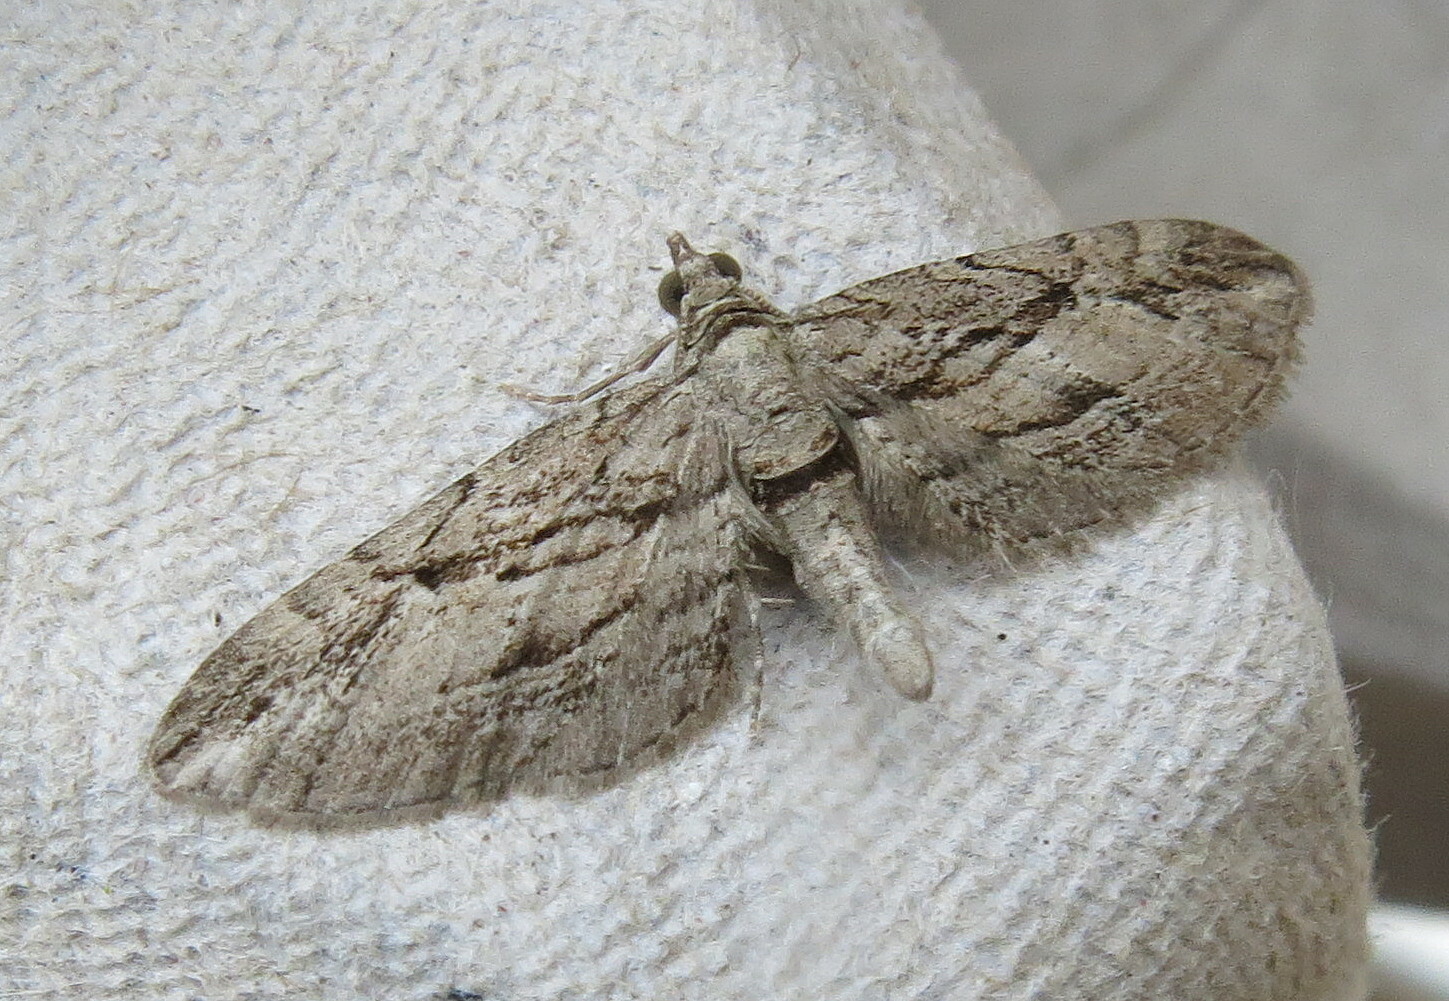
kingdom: Animalia
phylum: Arthropoda
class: Insecta
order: Lepidoptera
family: Geometridae
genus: Eupithecia
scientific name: Eupithecia phoeniceata
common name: Cypress pug
